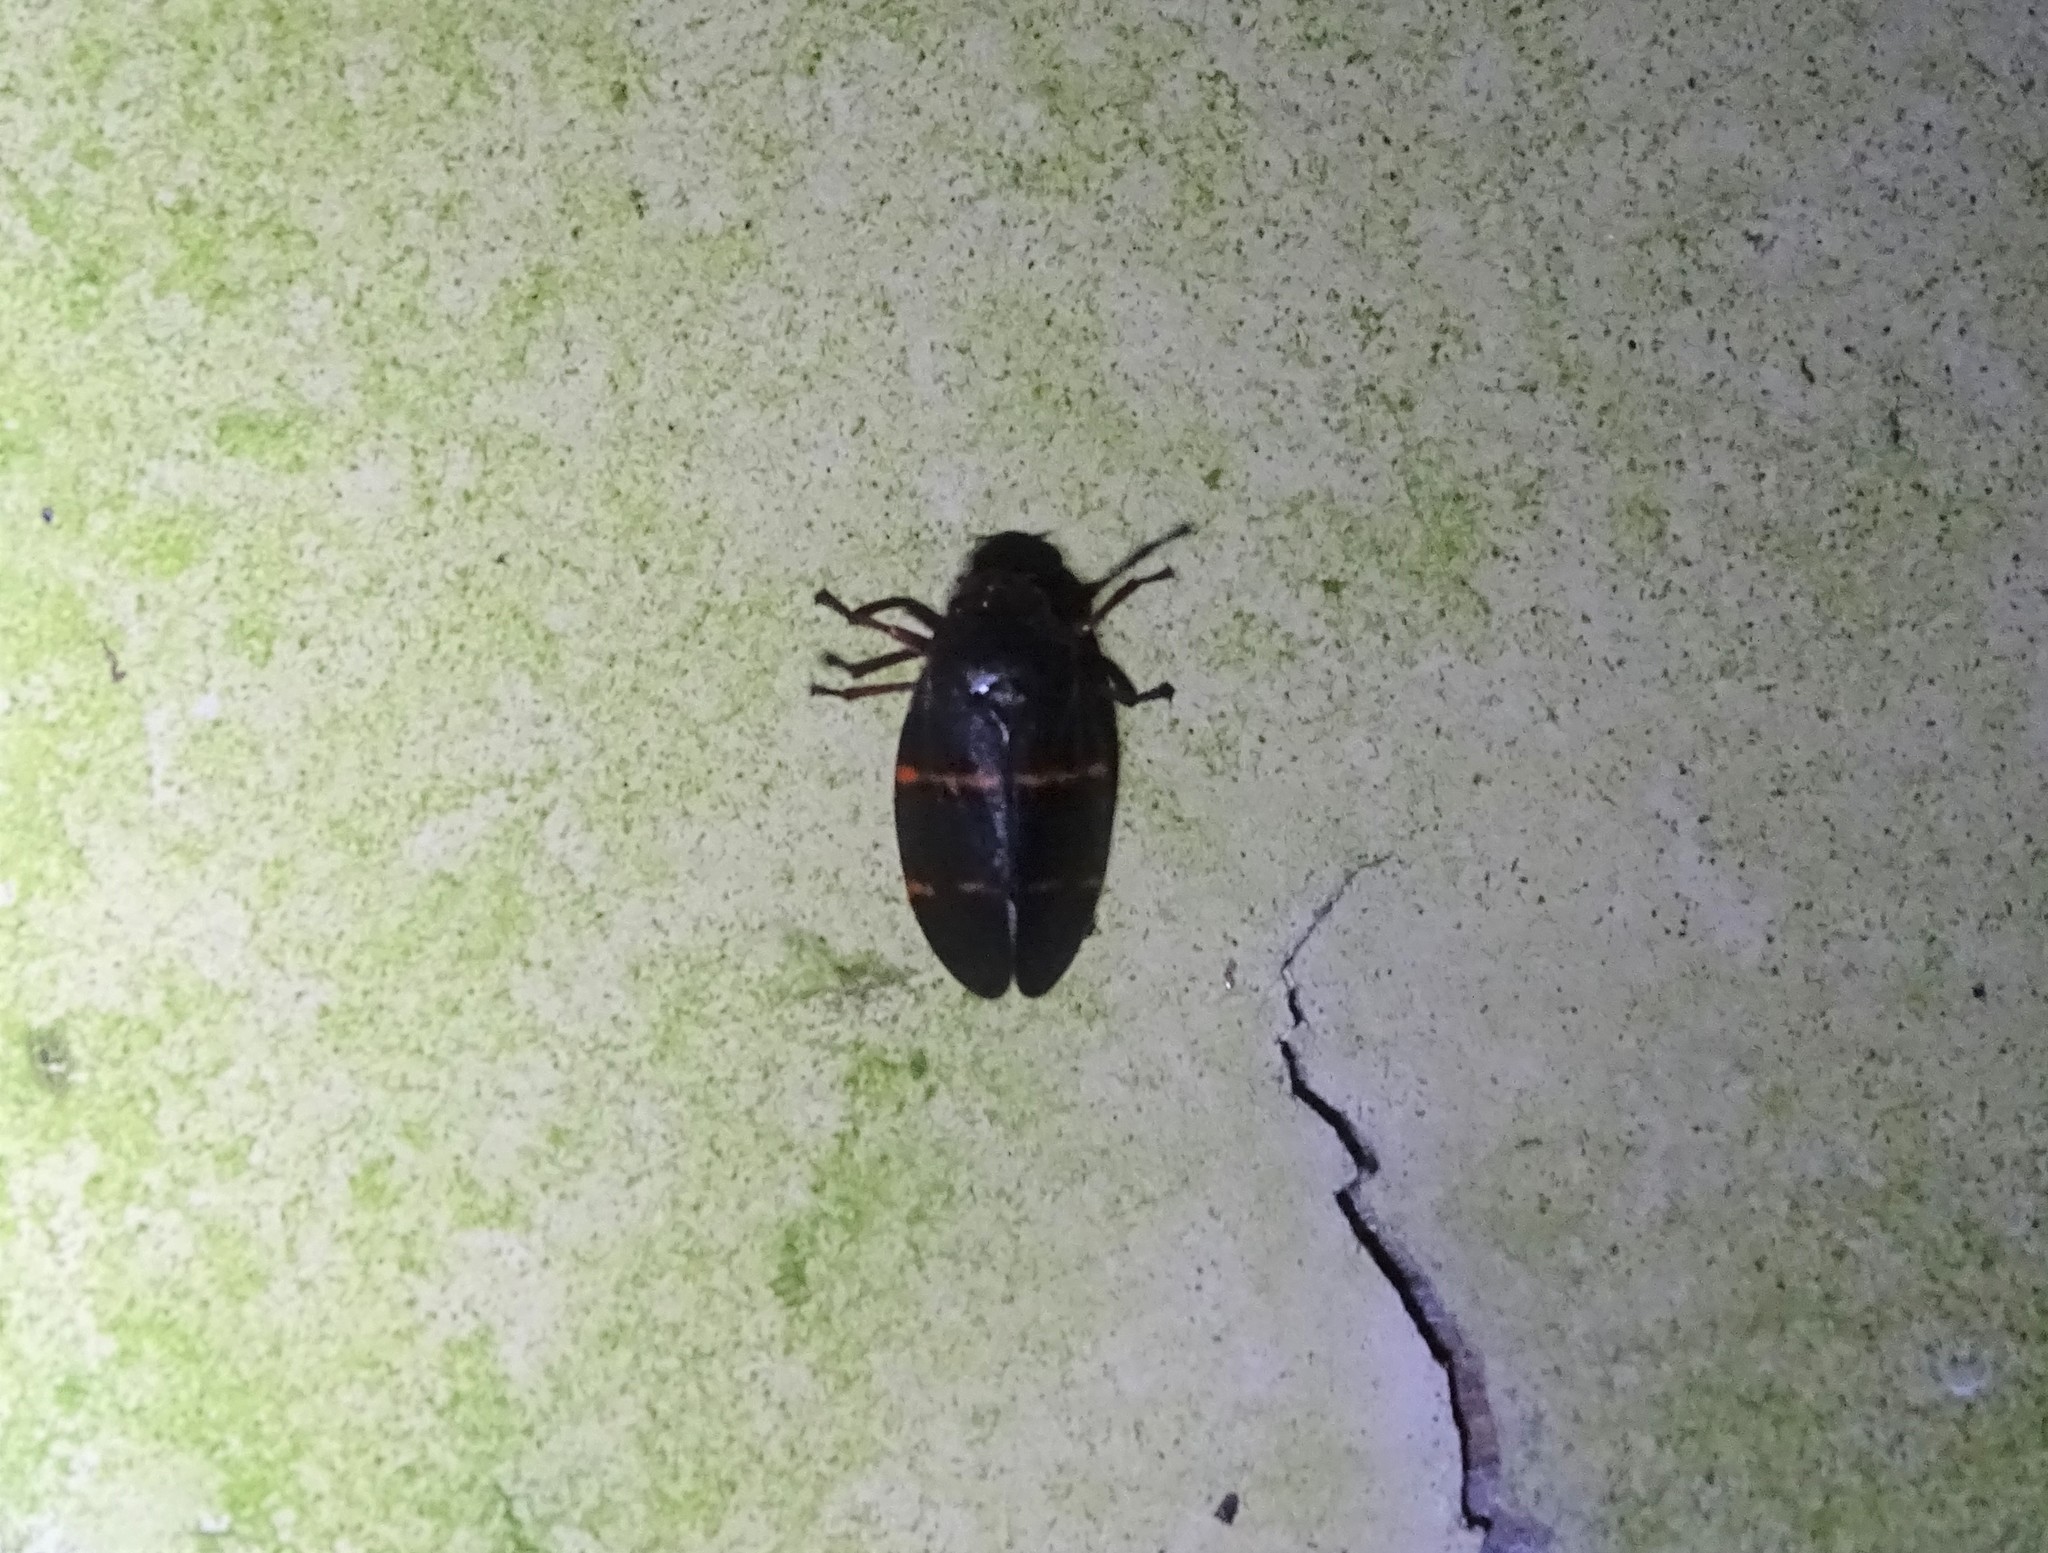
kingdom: Animalia
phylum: Arthropoda
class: Insecta
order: Hemiptera
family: Cercopidae
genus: Prosapia
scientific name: Prosapia bicincta
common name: Twolined spittlebug
